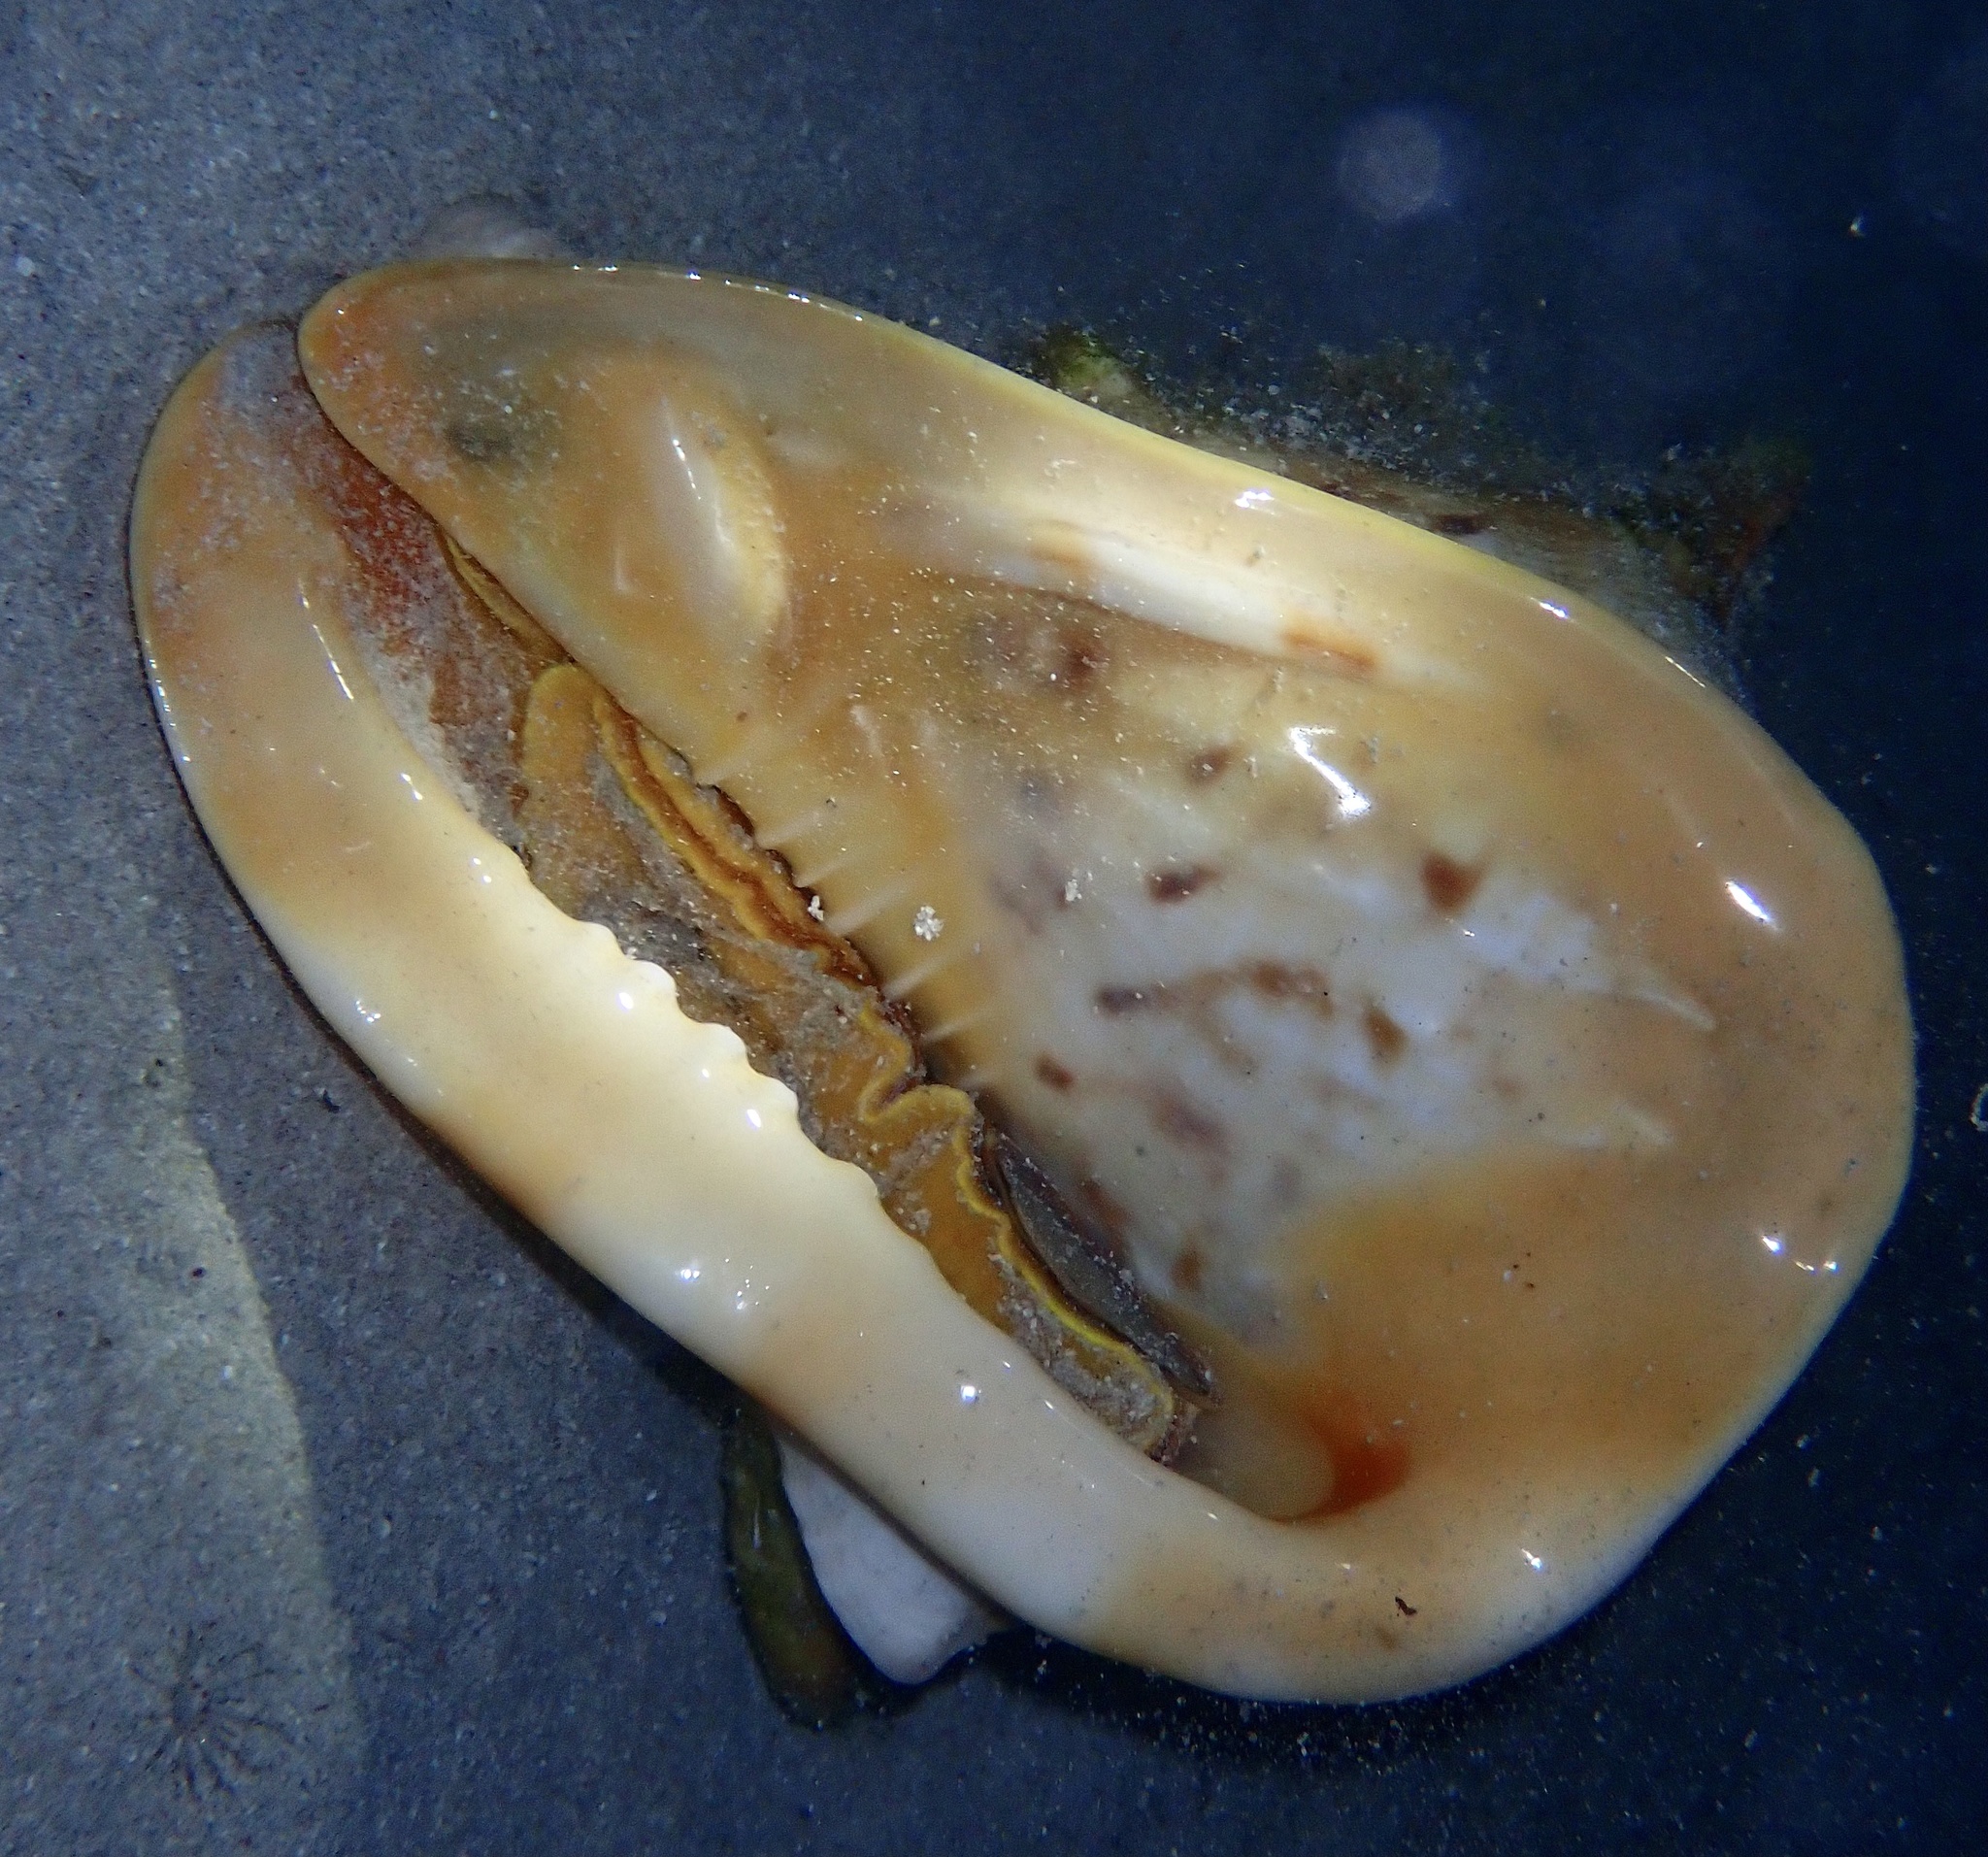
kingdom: Animalia
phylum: Mollusca
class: Gastropoda
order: Littorinimorpha
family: Cassidae
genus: Cassis
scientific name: Cassis cornuta
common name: Giant helmet
